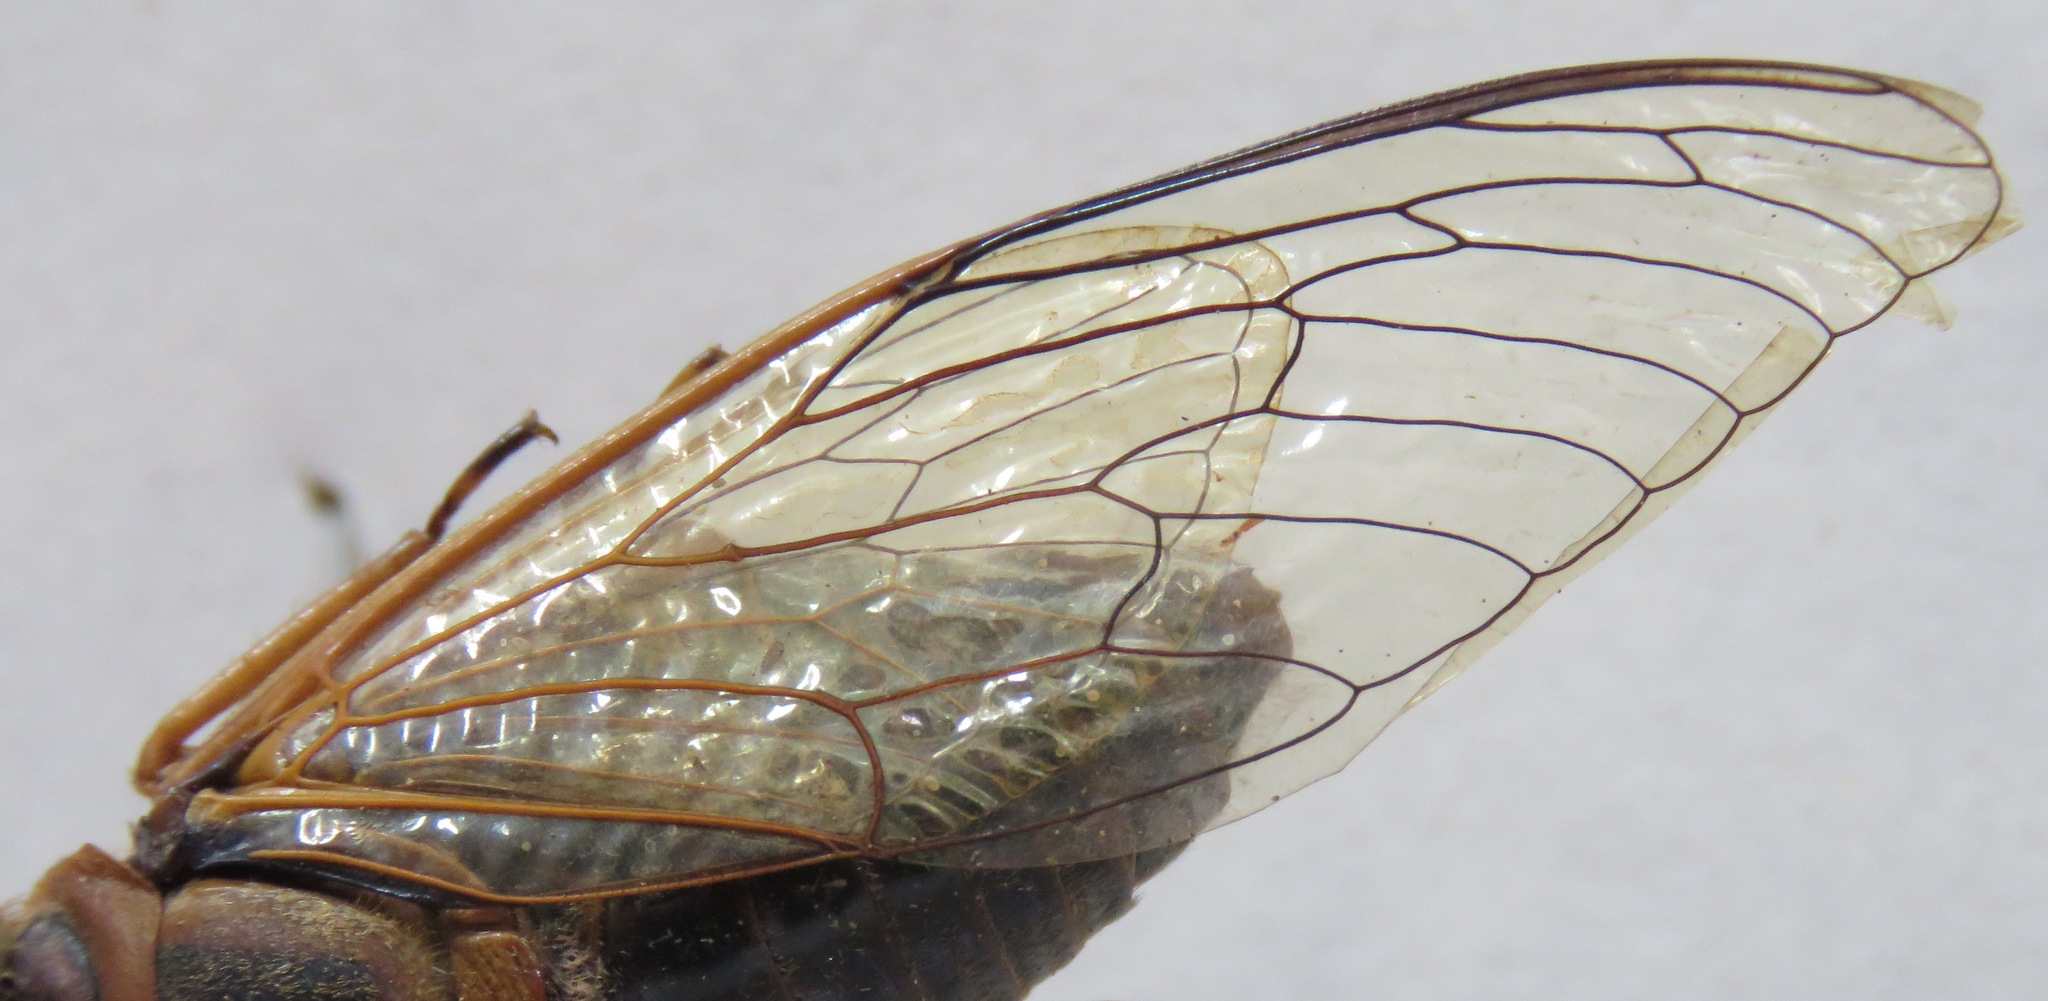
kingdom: Animalia
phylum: Arthropoda
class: Insecta
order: Hemiptera
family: Cicadidae
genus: Diceroprocta
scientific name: Diceroprocta ruatana
